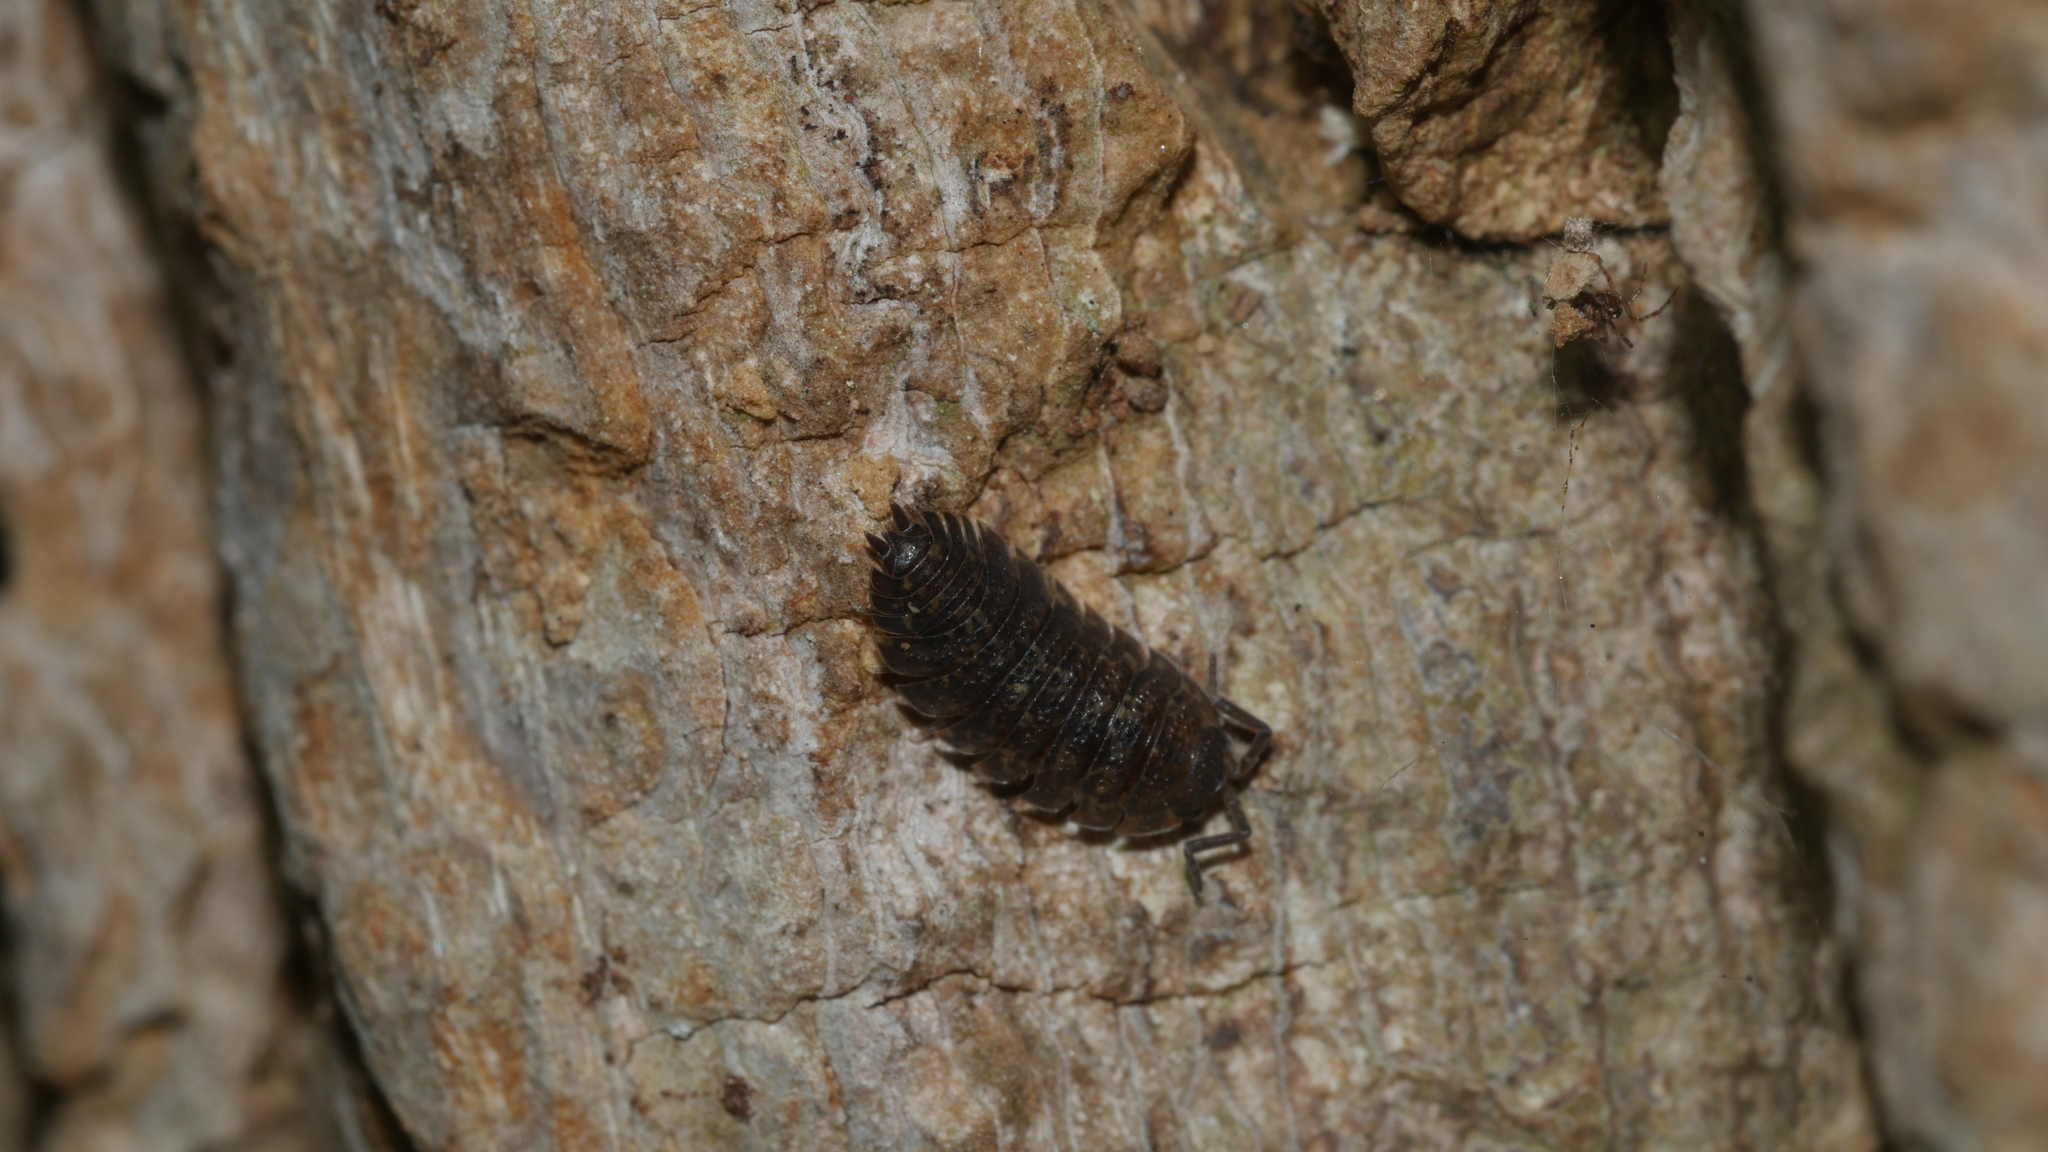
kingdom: Animalia
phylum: Arthropoda
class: Malacostraca
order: Isopoda
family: Porcellionidae
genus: Porcellio
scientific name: Porcellio scaber
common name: Common rough woodlouse
